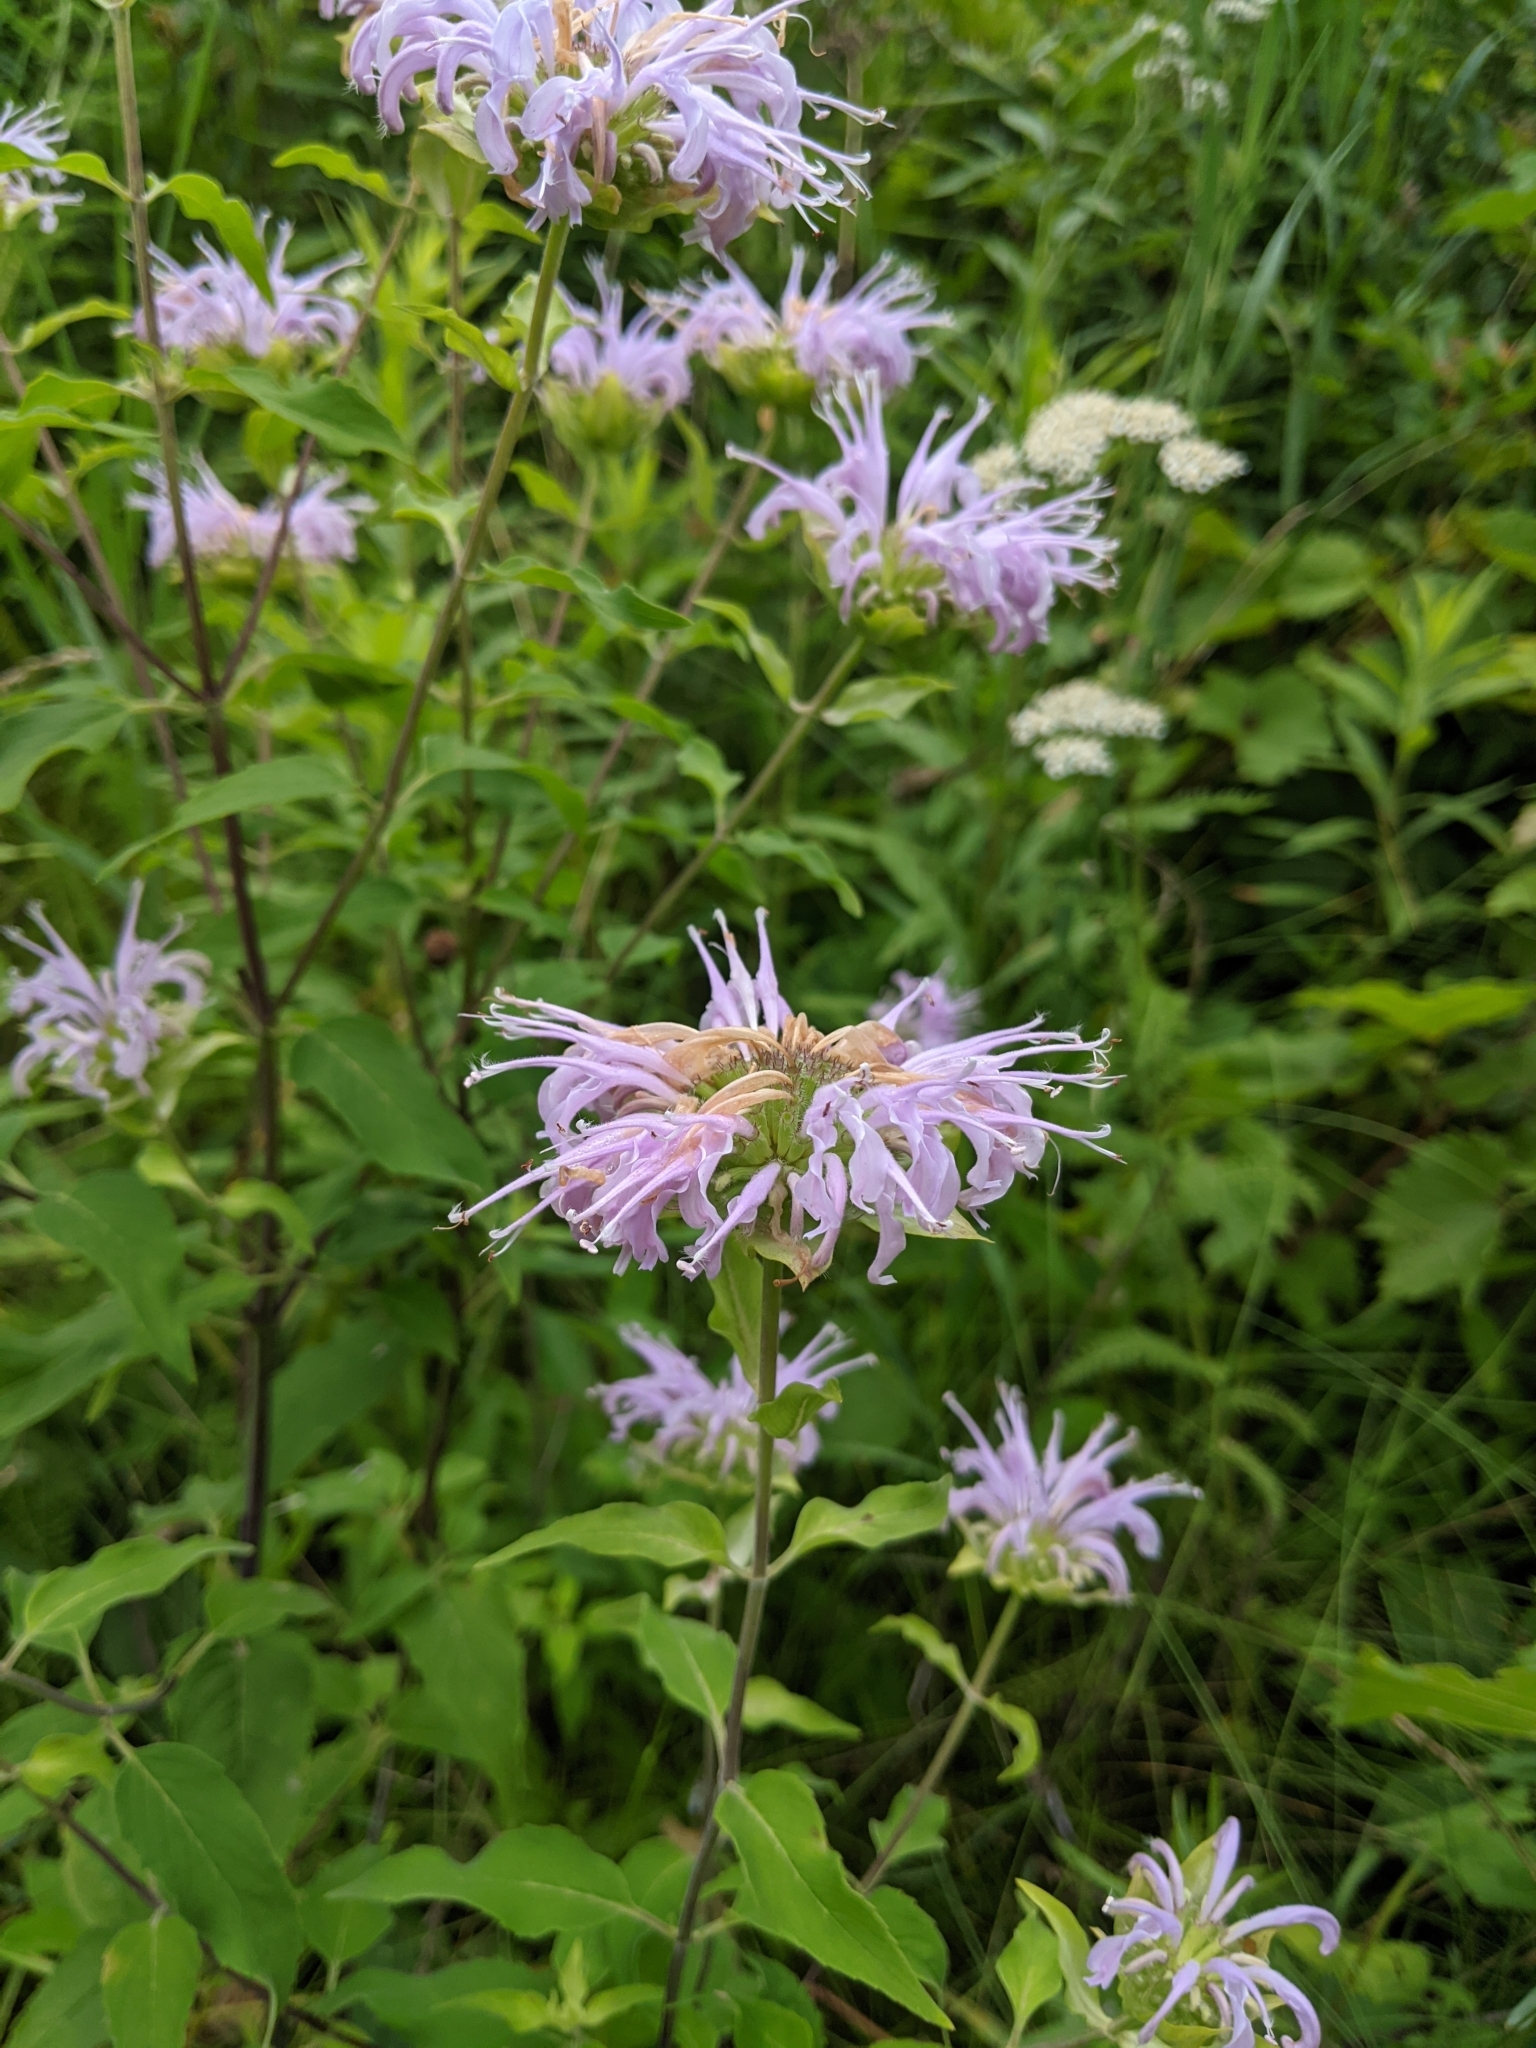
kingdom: Plantae
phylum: Tracheophyta
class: Magnoliopsida
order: Lamiales
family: Lamiaceae
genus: Monarda
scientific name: Monarda fistulosa
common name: Purple beebalm
